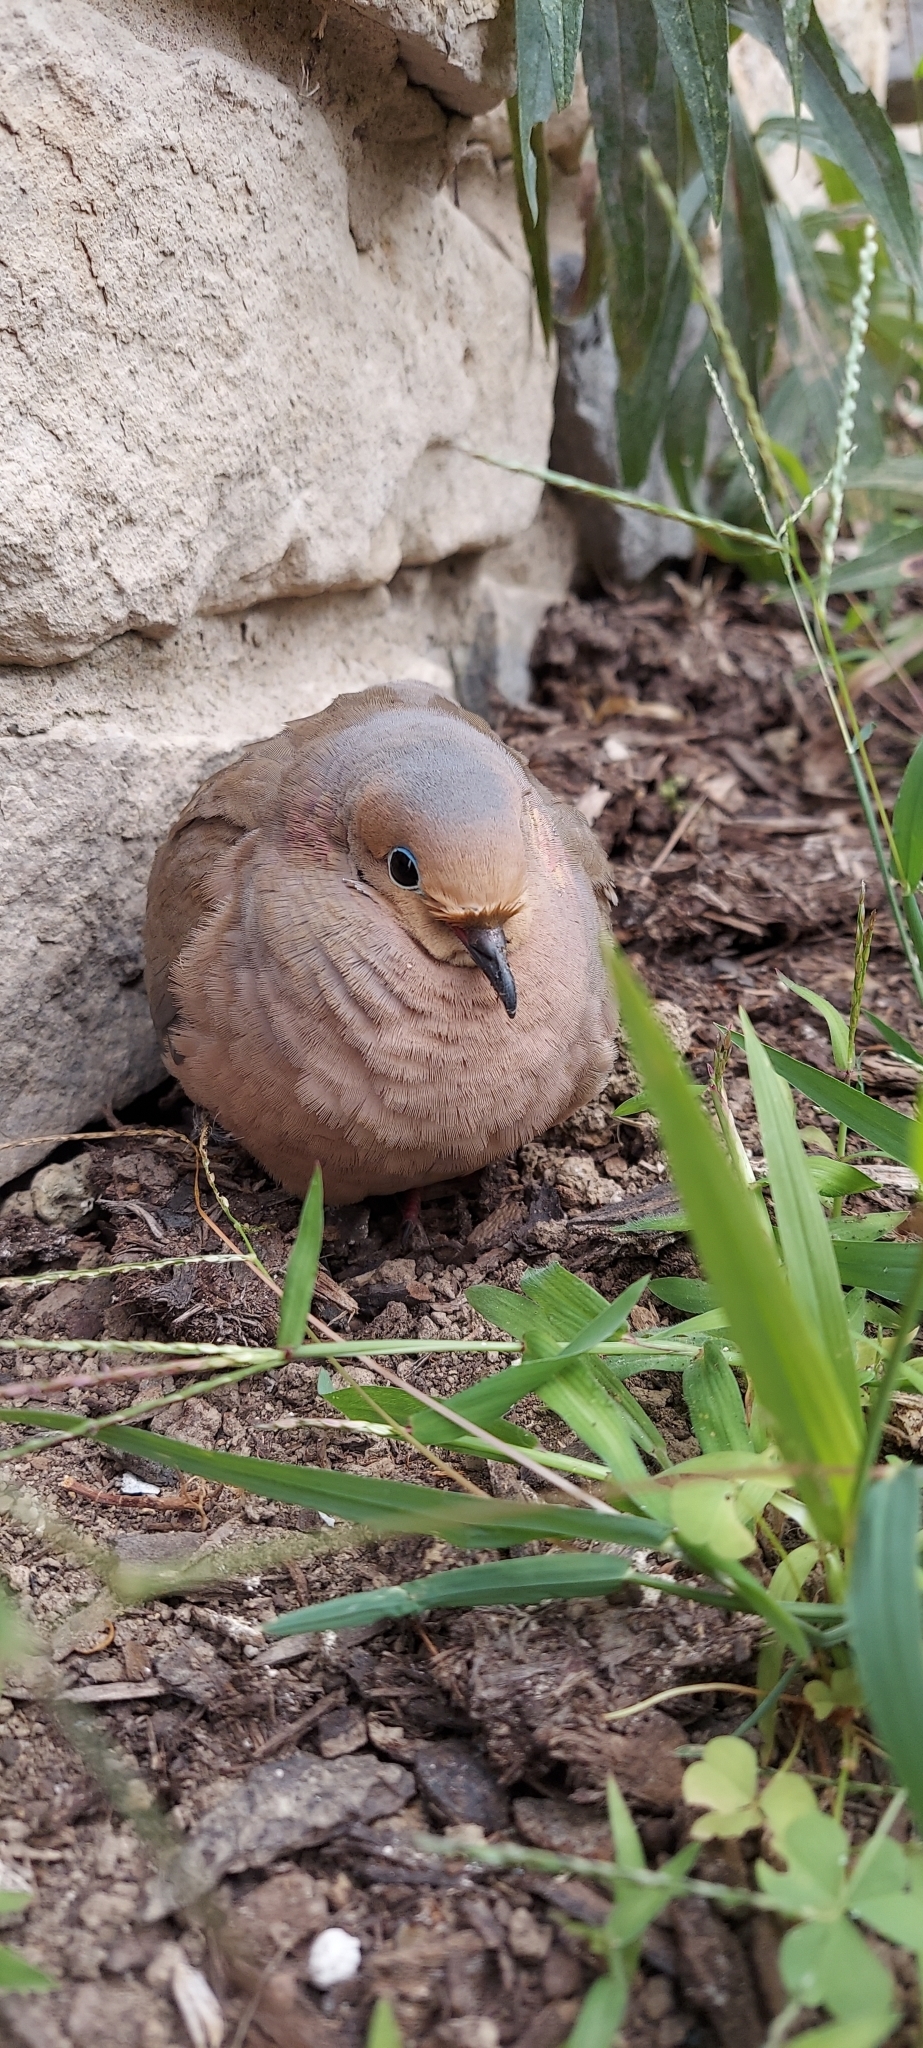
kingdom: Animalia
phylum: Chordata
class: Aves
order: Columbiformes
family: Columbidae
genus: Zenaida
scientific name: Zenaida macroura
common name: Mourning dove
